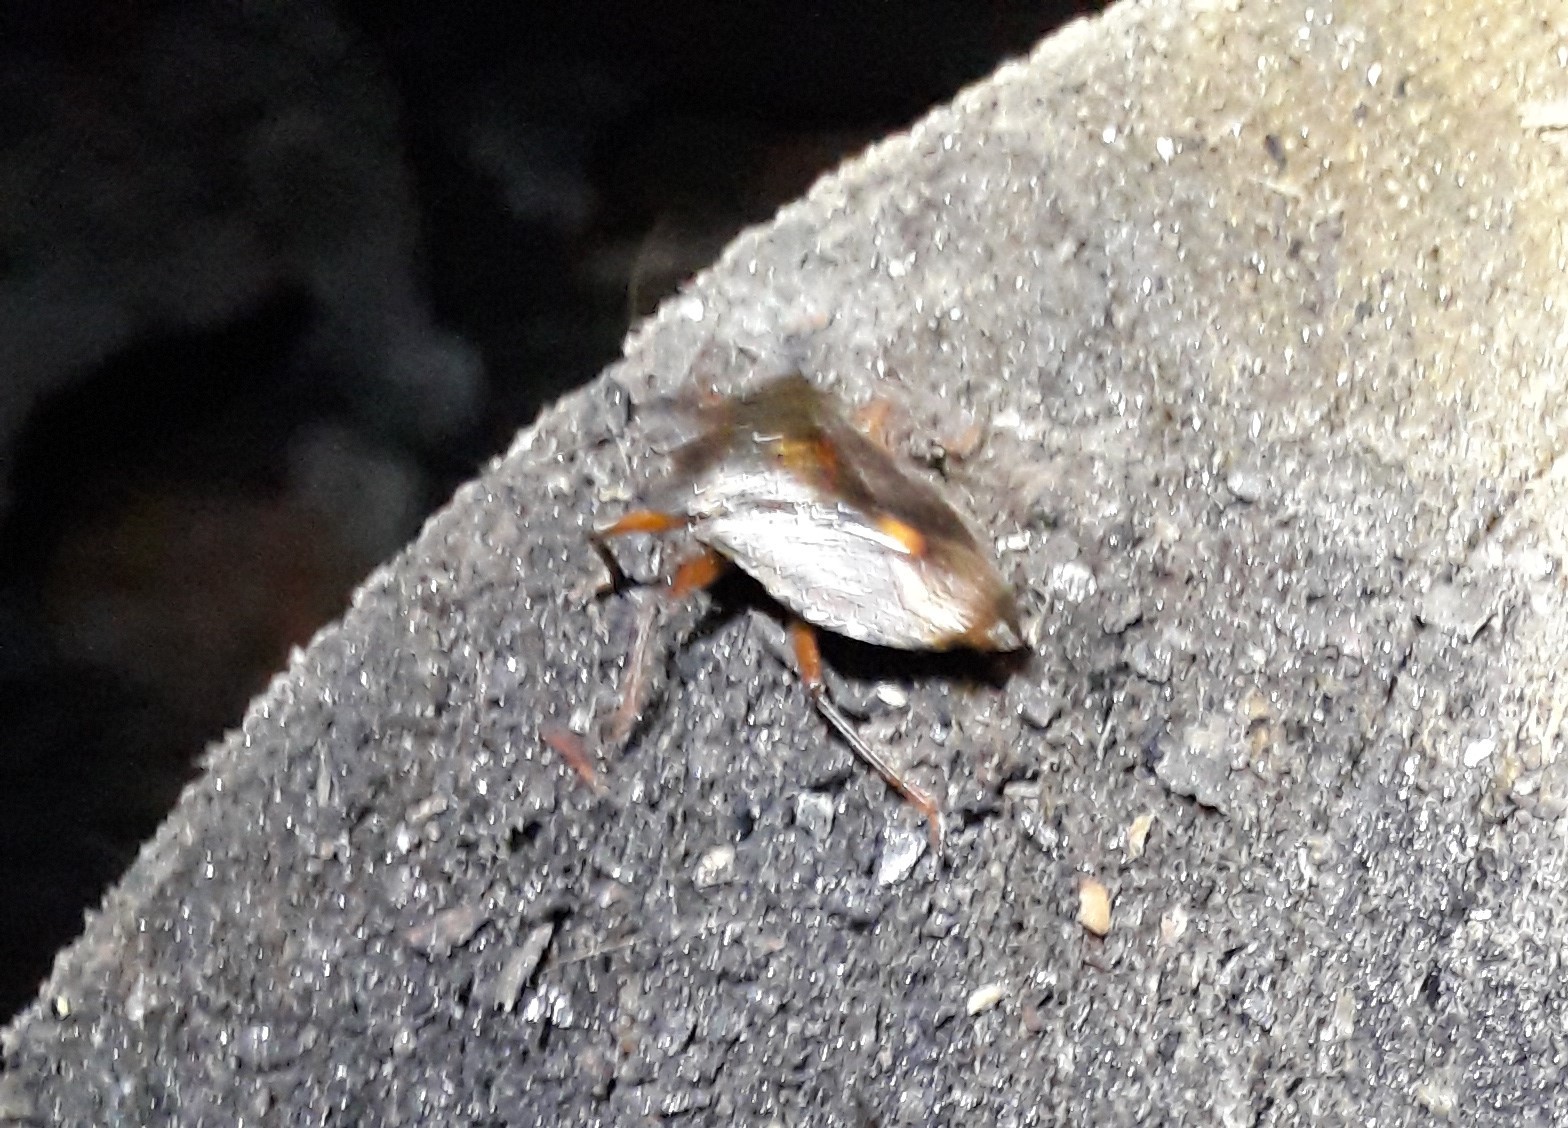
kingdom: Animalia
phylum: Arthropoda
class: Insecta
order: Hemiptera
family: Pentatomidae
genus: Pentatoma
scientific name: Pentatoma rufipes
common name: Forest bug
